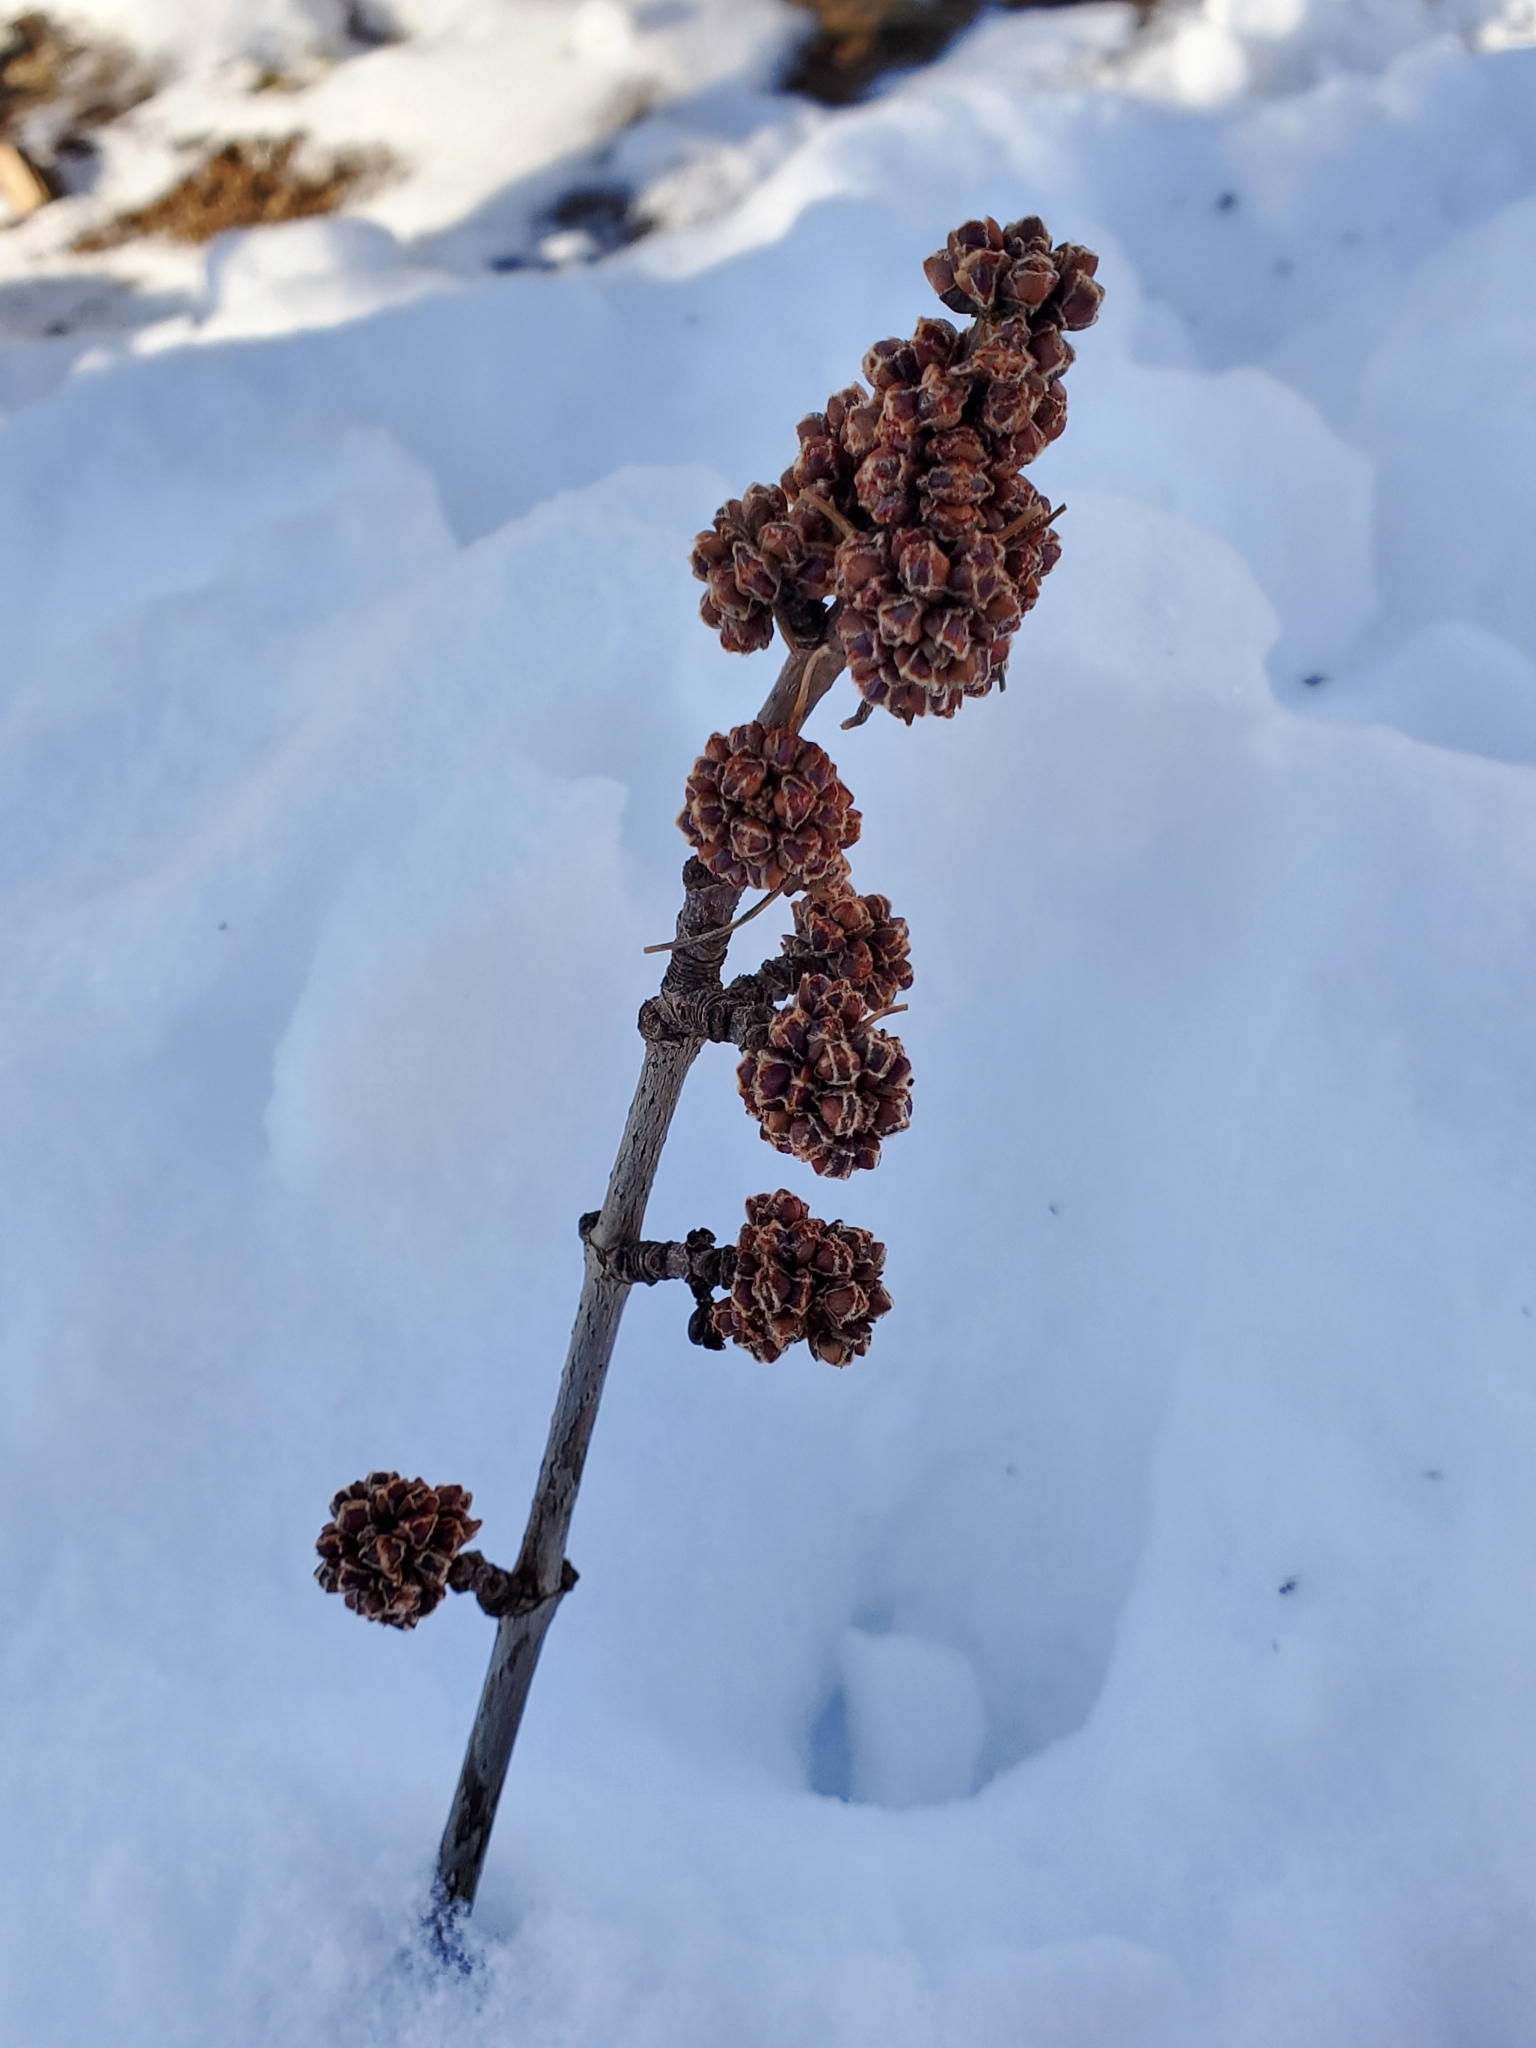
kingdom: Plantae
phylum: Tracheophyta
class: Magnoliopsida
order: Sapindales
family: Sapindaceae
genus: Acer
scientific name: Acer saccharinum
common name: Silver maple
